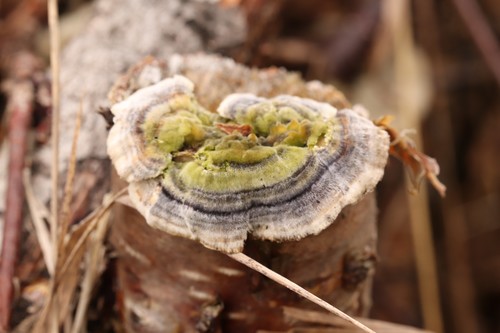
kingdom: Fungi
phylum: Basidiomycota
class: Agaricomycetes
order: Polyporales
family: Polyporaceae
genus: Trametes
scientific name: Trametes versicolor
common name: Turkeytail
